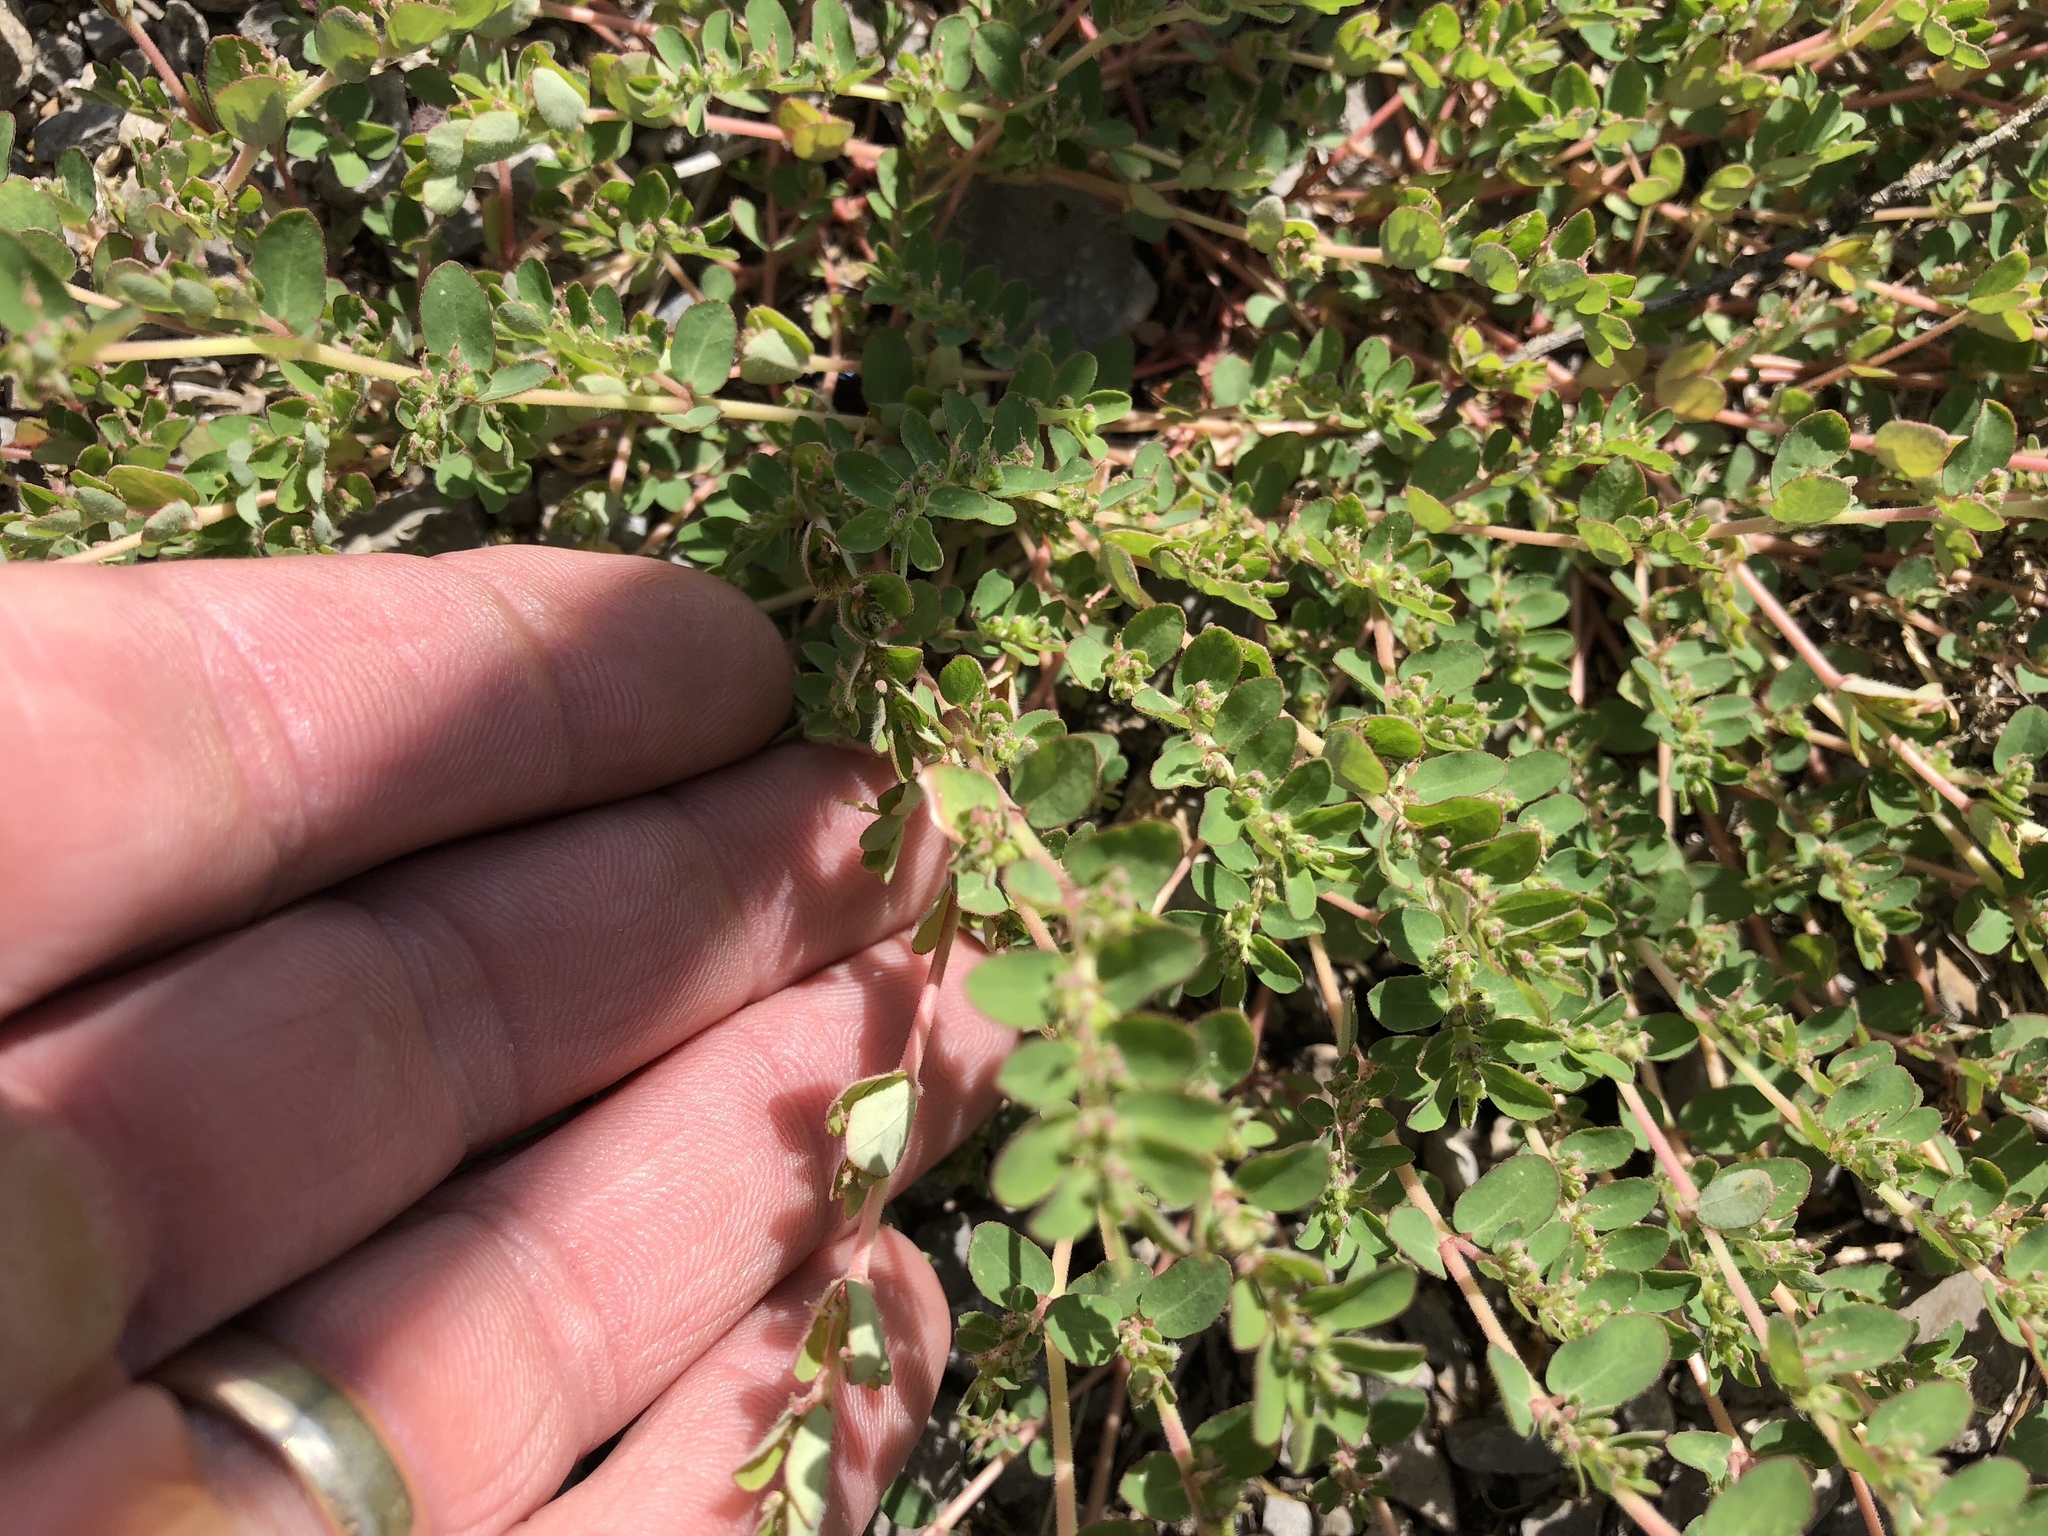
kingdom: Plantae
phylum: Tracheophyta
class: Magnoliopsida
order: Malpighiales
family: Euphorbiaceae
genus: Euphorbia
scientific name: Euphorbia prostrata
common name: Prostrate sandmat
